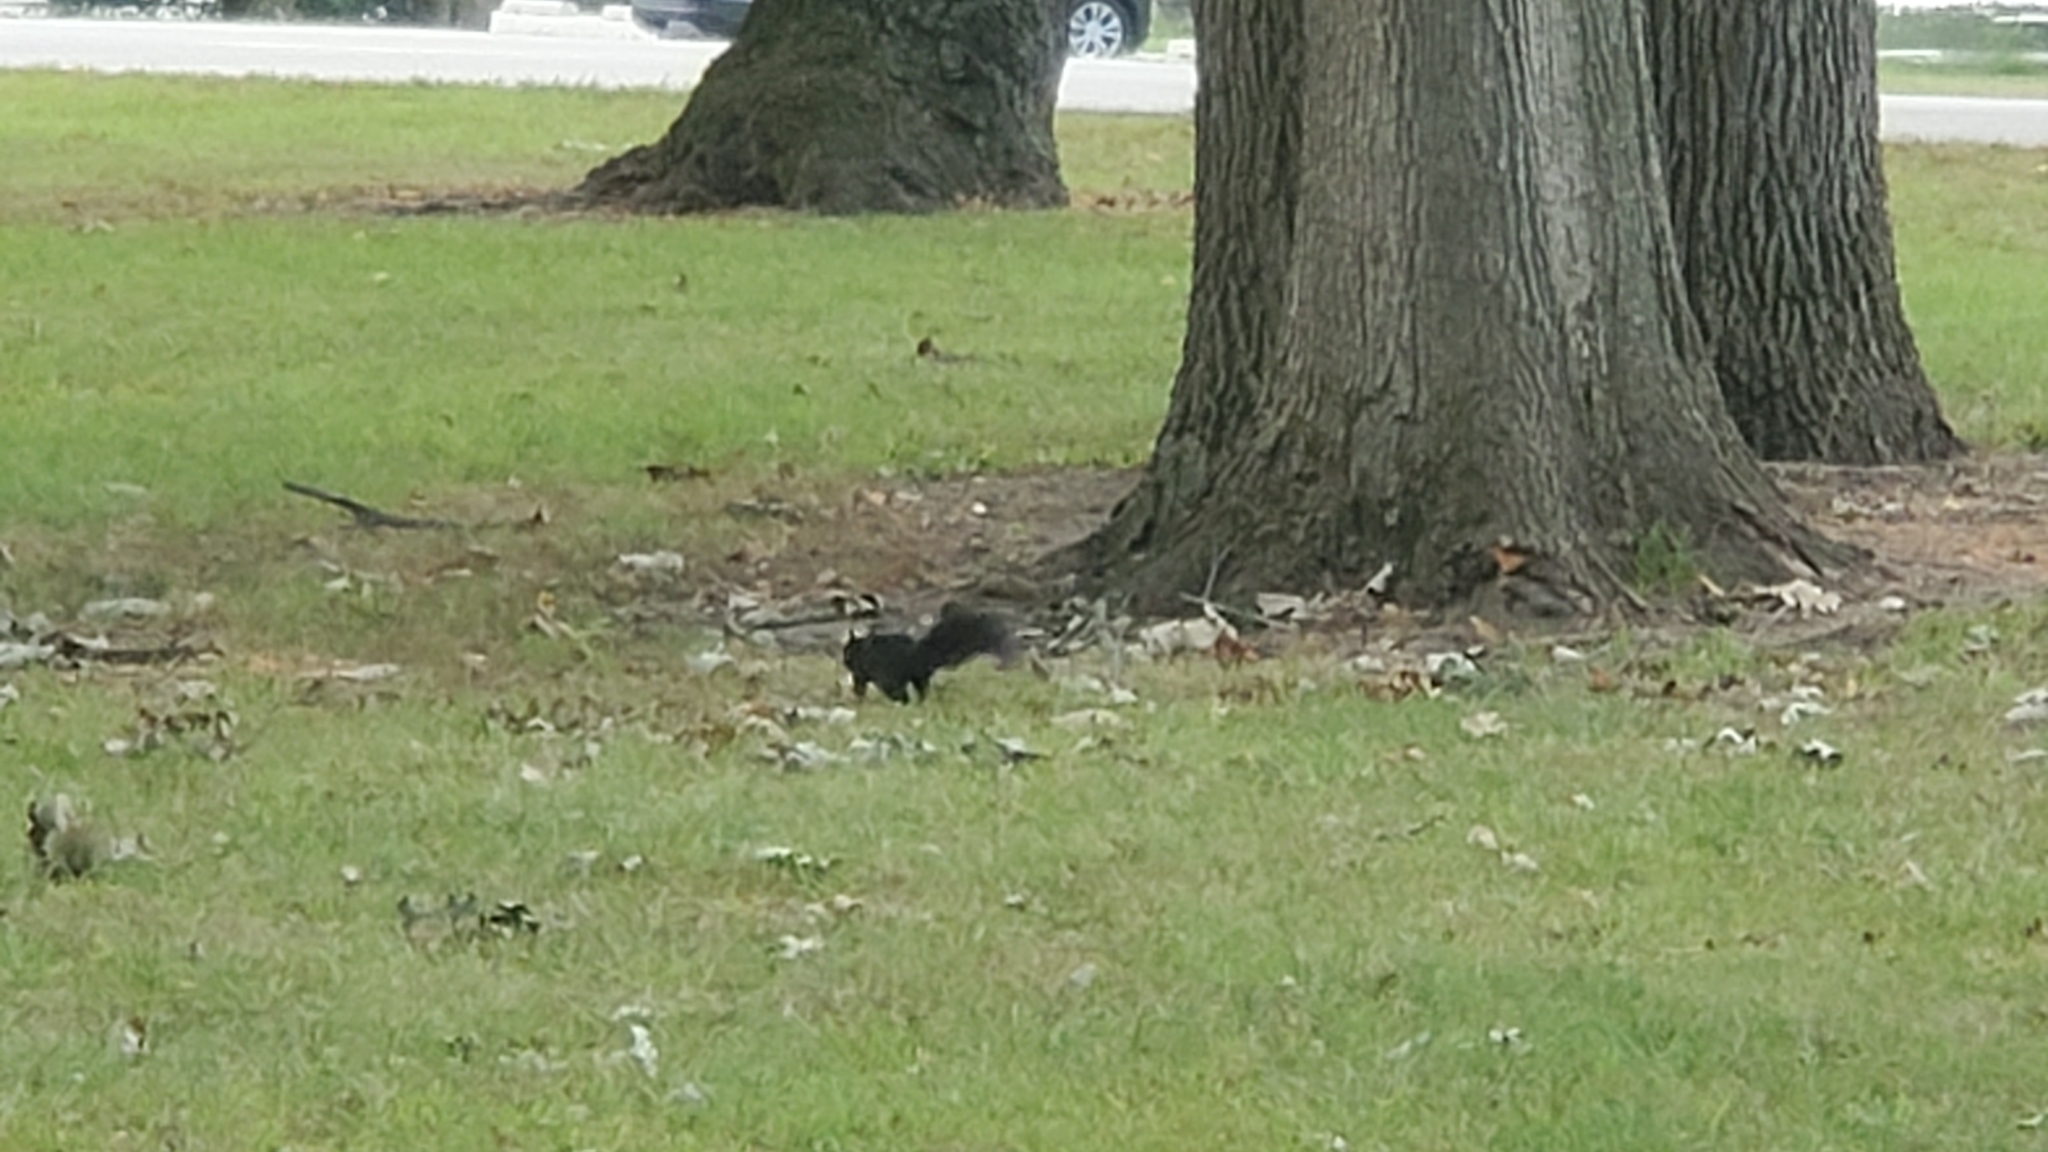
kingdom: Animalia
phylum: Chordata
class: Mammalia
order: Rodentia
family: Sciuridae
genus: Sciurus
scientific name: Sciurus carolinensis
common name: Eastern gray squirrel
